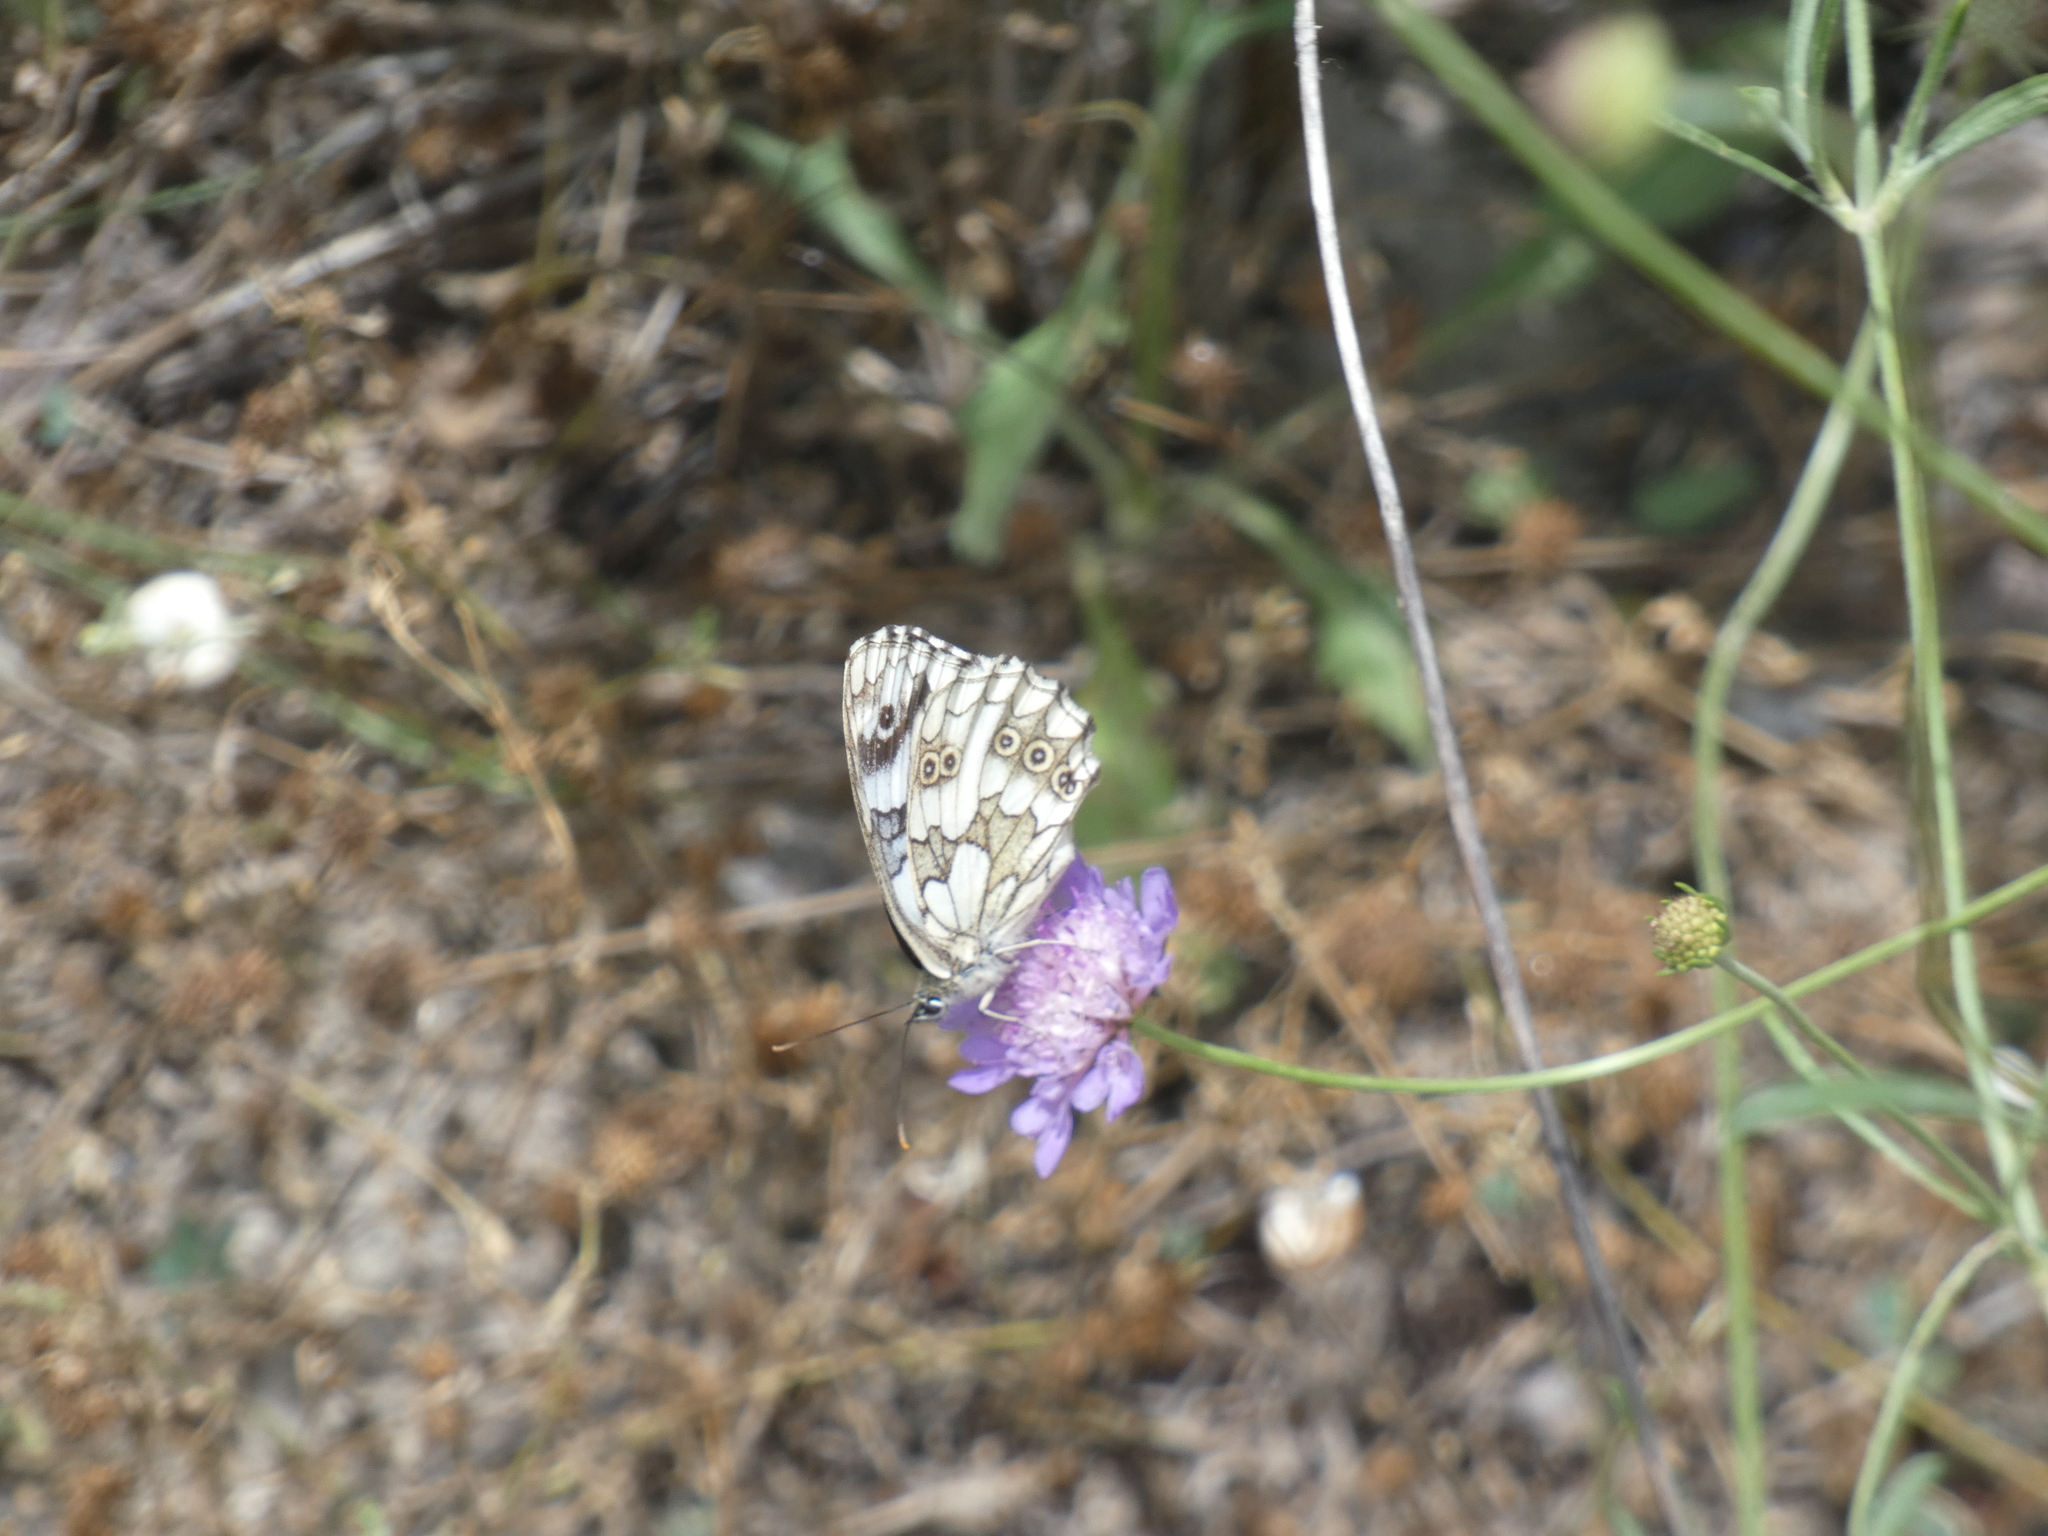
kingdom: Animalia
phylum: Arthropoda
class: Insecta
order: Lepidoptera
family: Nymphalidae
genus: Melanargia
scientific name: Melanargia galathea
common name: Marbled white
